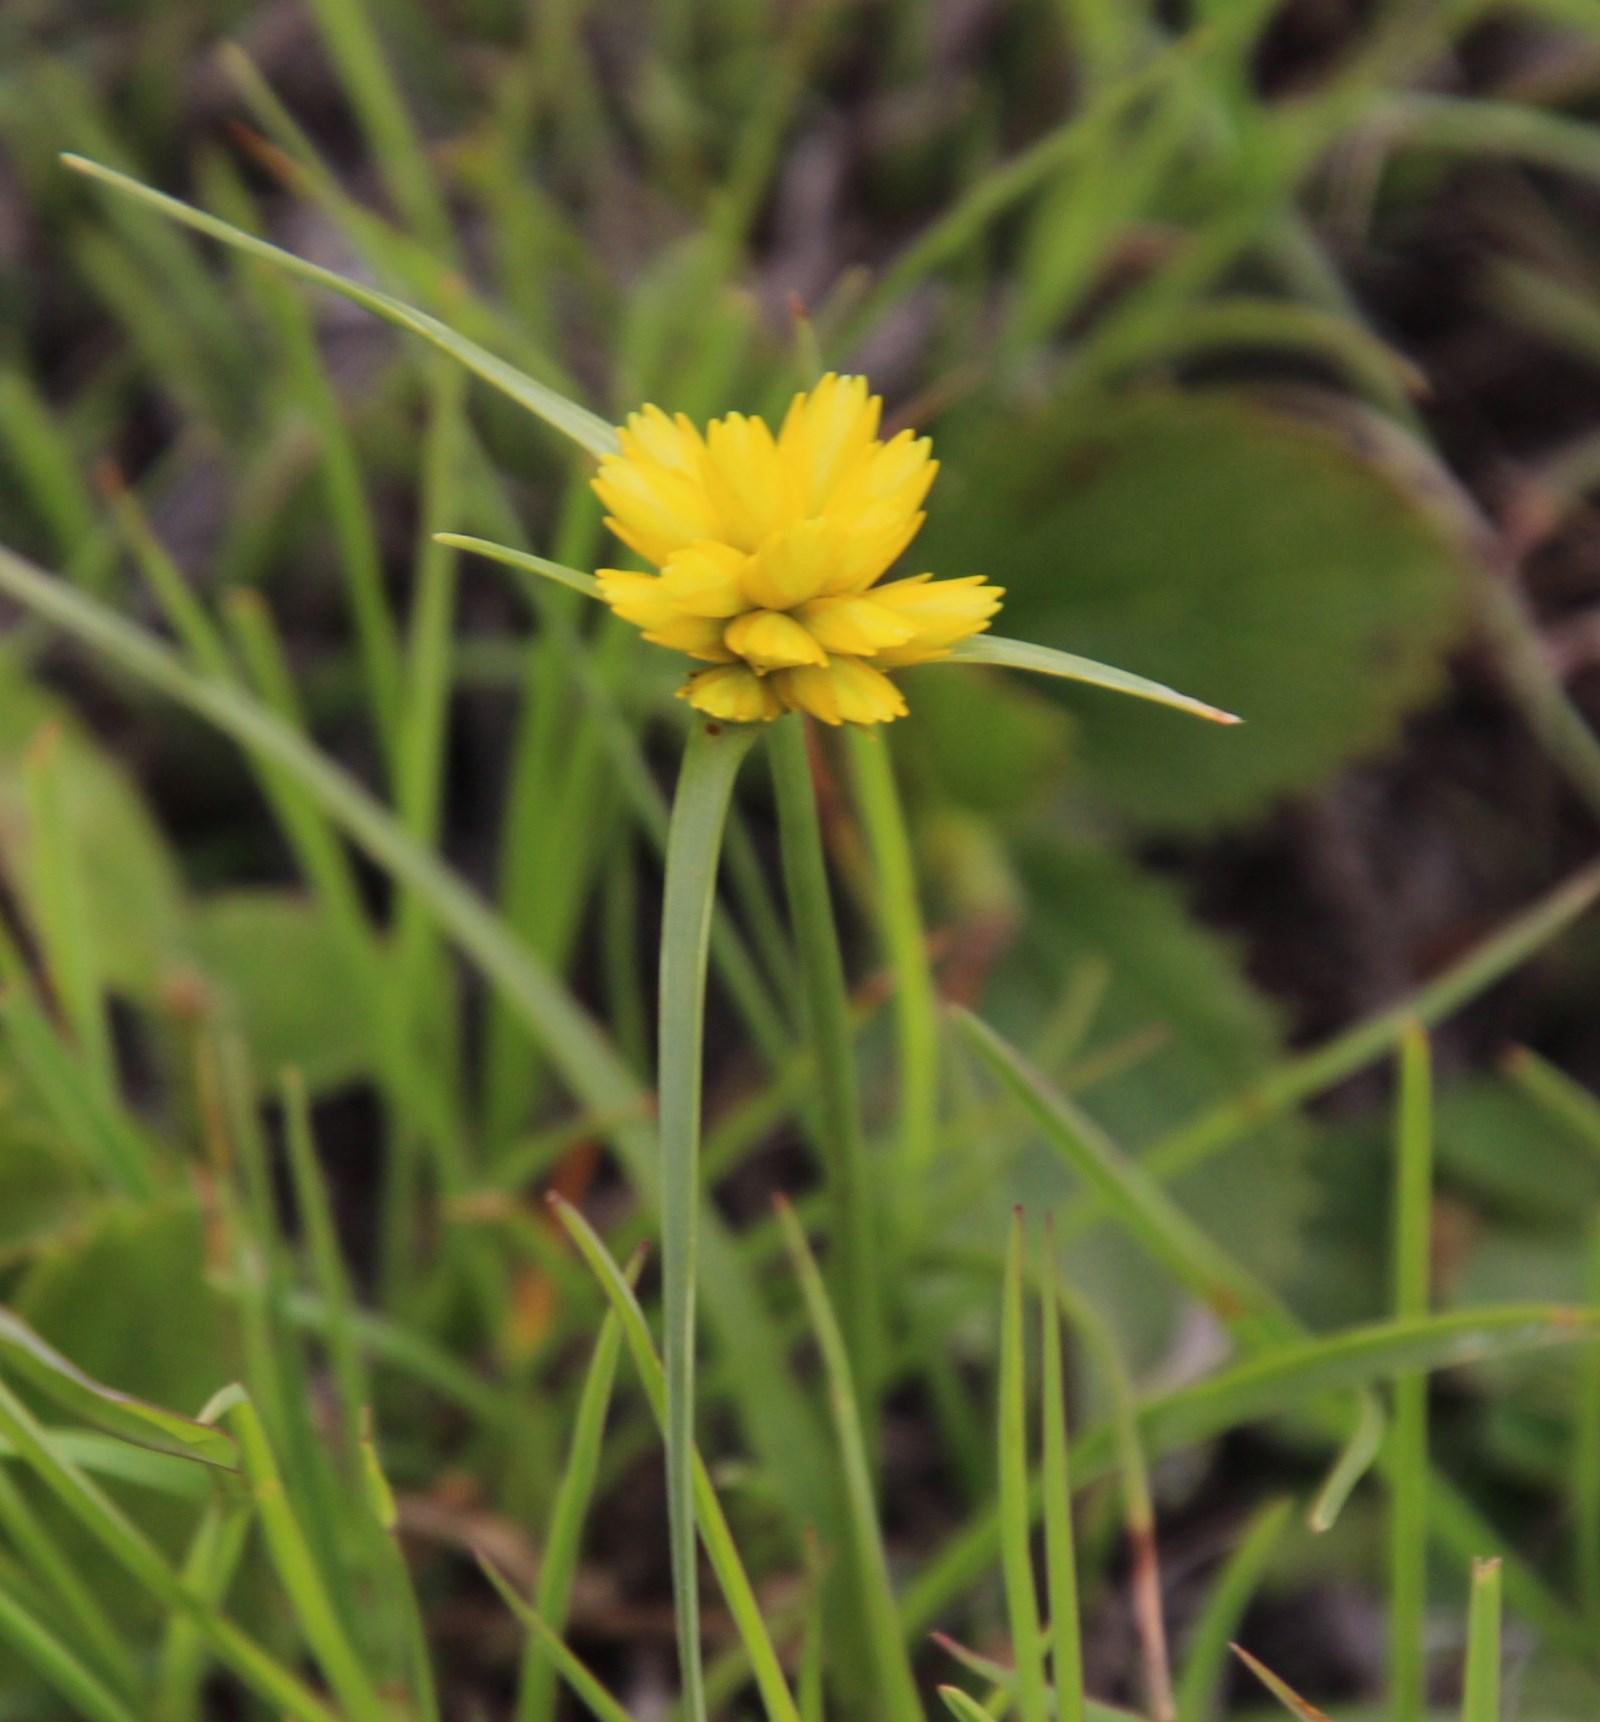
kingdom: Plantae
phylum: Tracheophyta
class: Liliopsida
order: Poales
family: Cyperaceae
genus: Cyperus
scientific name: Cyperus sphaerocephalus
